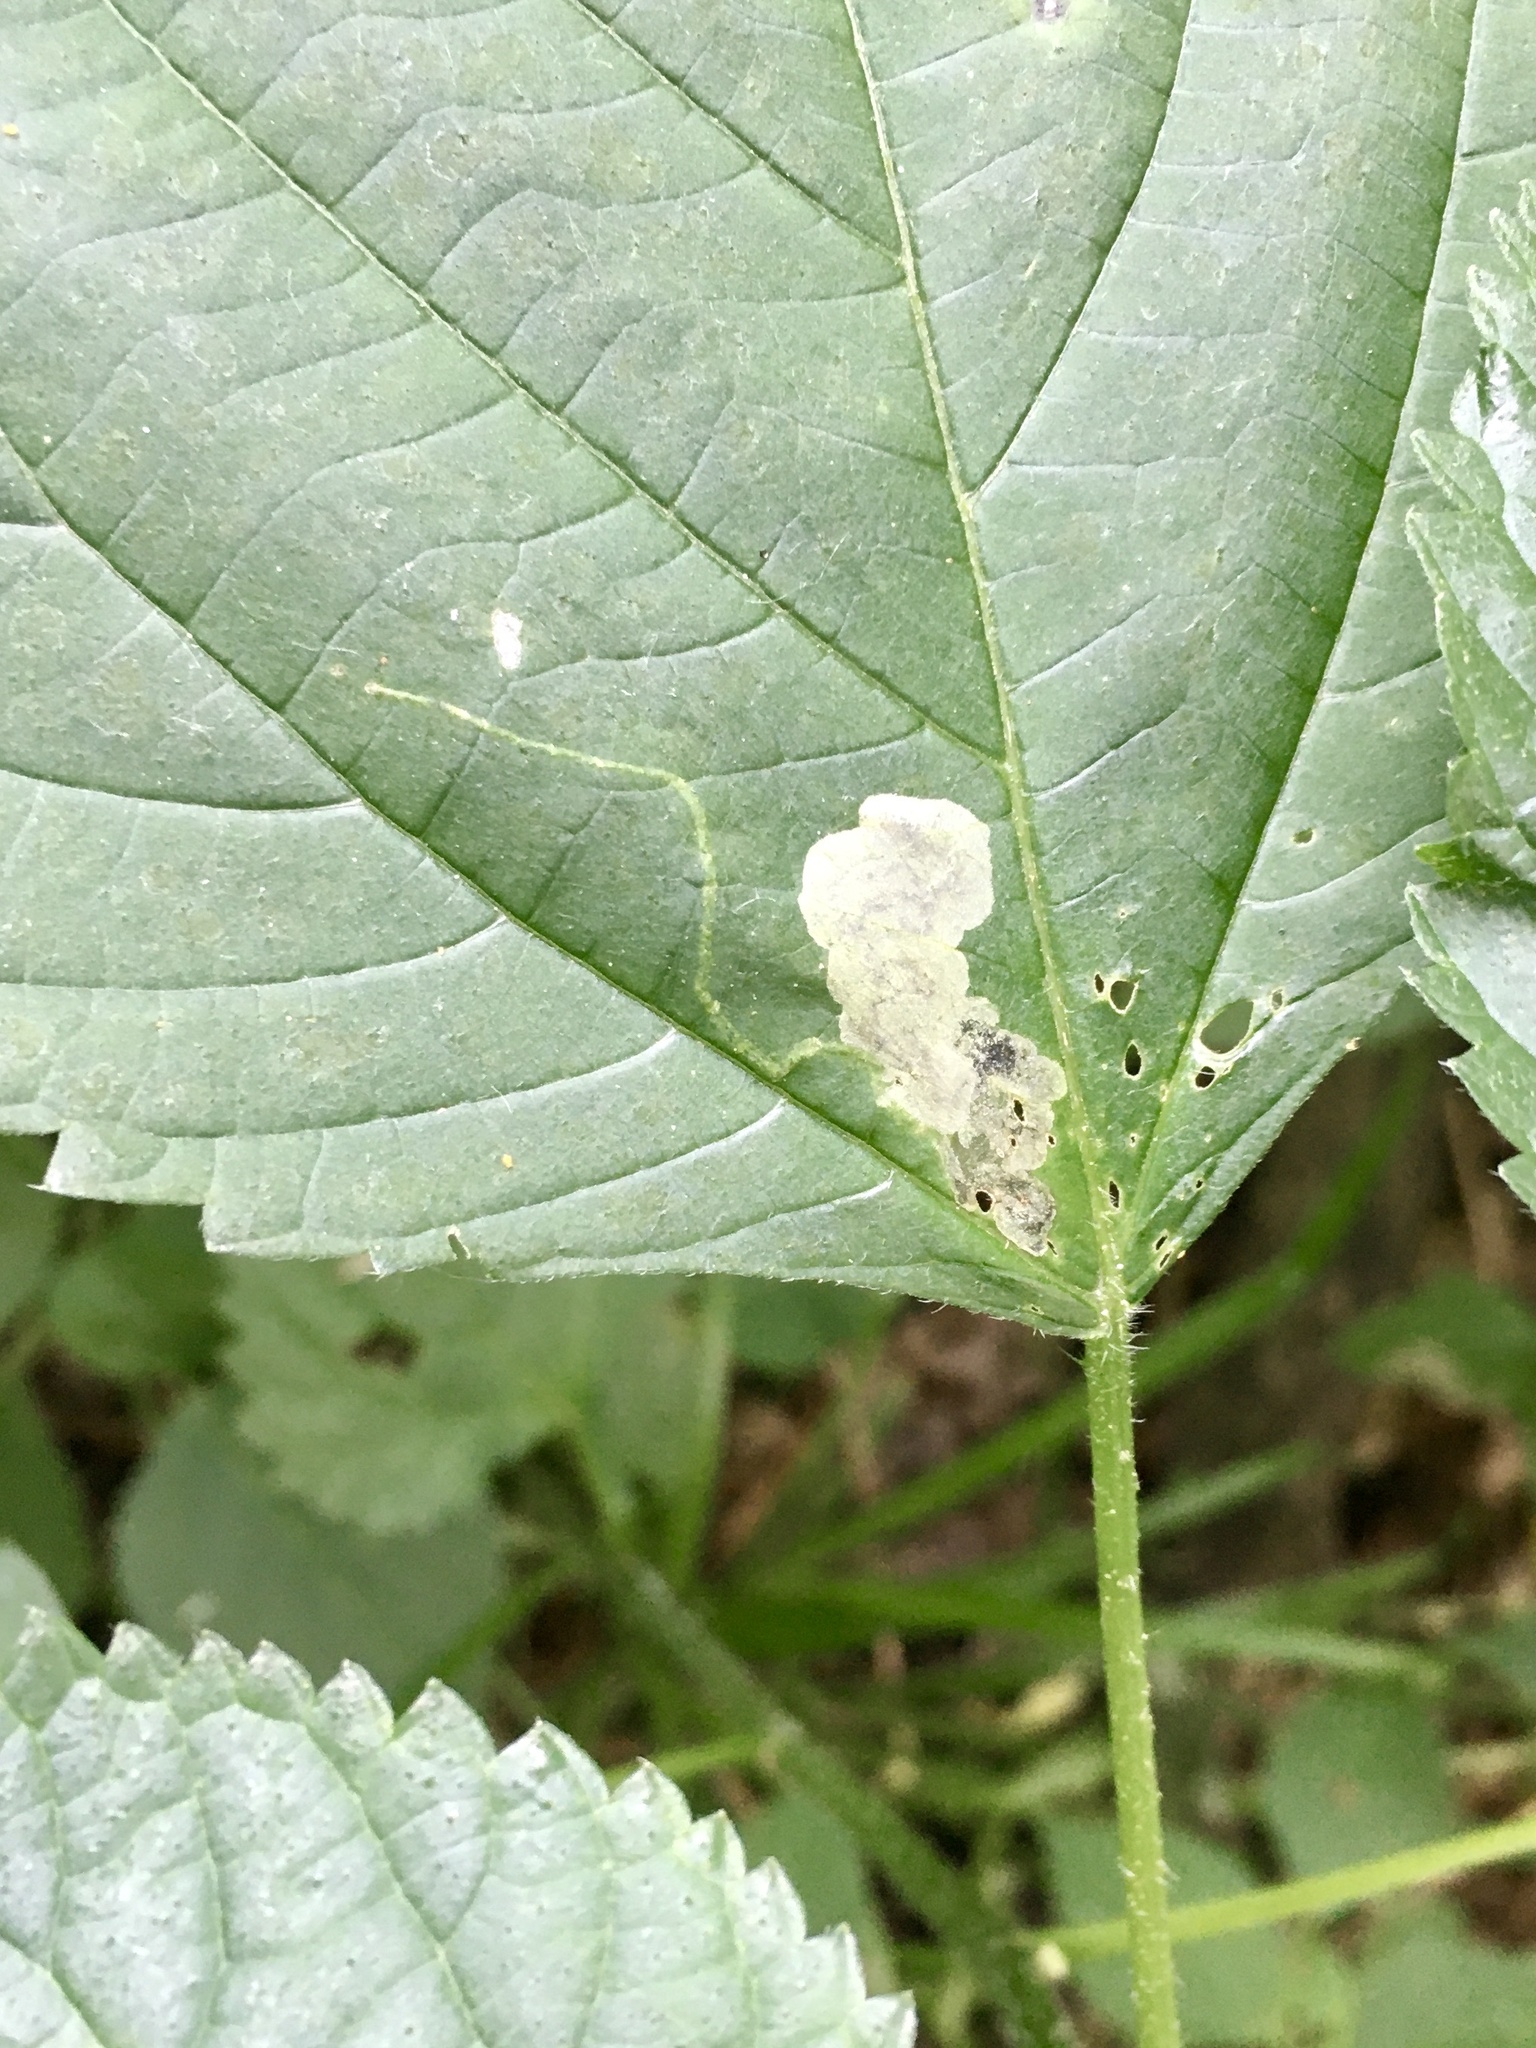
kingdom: Animalia
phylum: Arthropoda
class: Insecta
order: Diptera
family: Agromyzidae
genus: Agromyza
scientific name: Agromyza diversa
